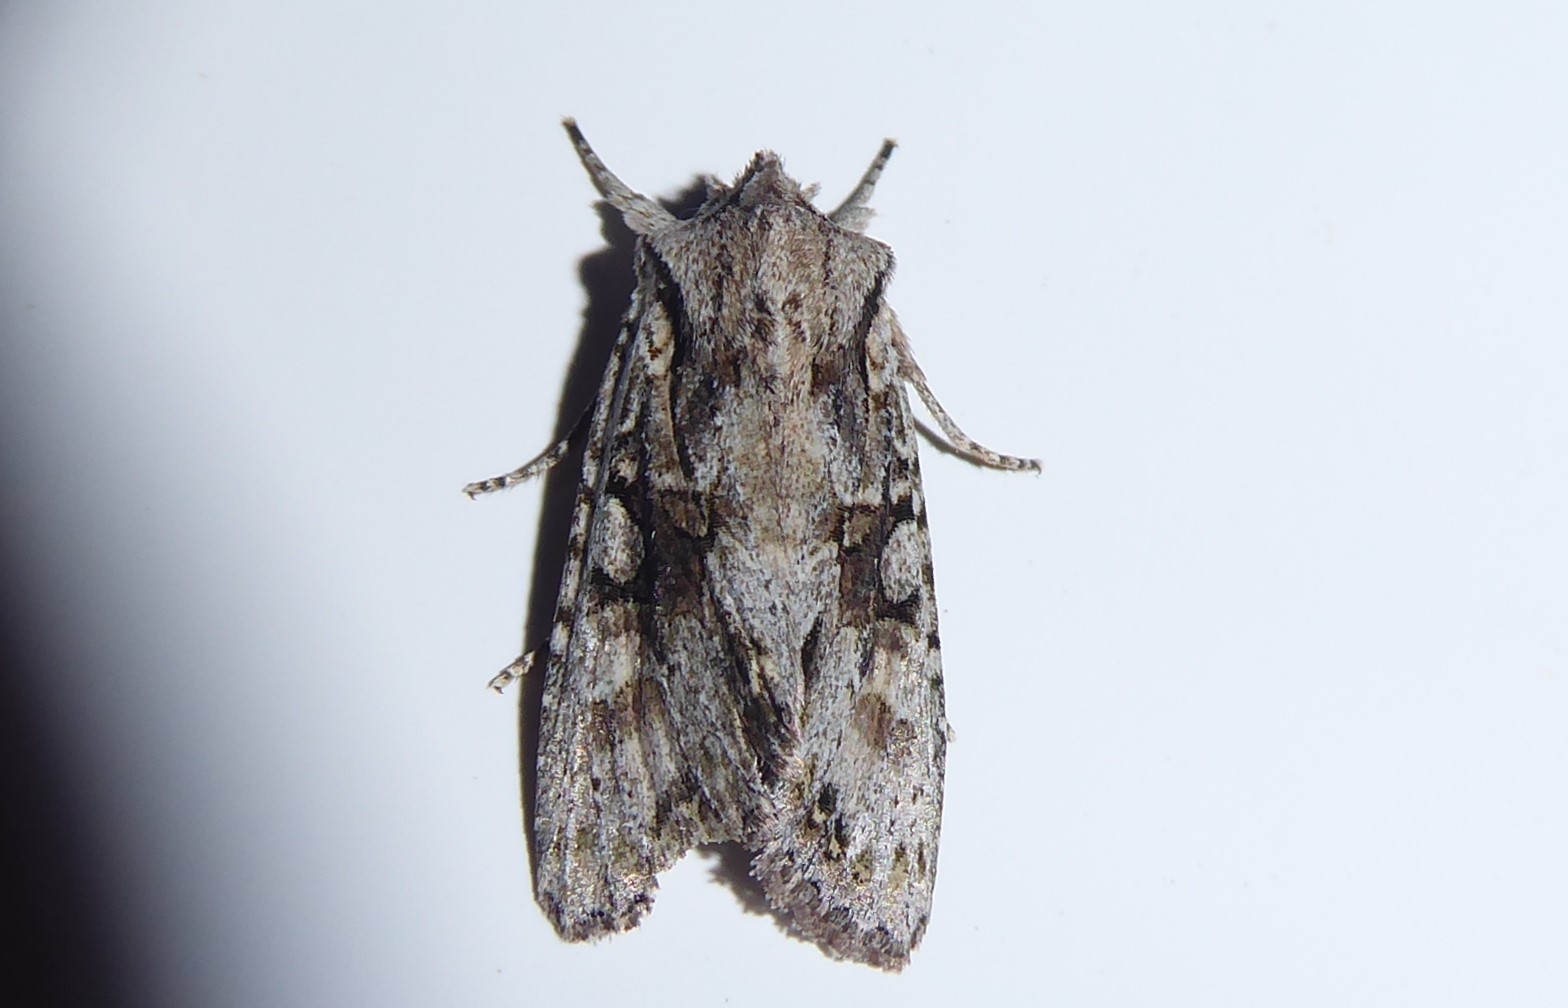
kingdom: Animalia
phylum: Arthropoda
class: Insecta
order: Lepidoptera
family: Noctuidae
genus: Ichneutica
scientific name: Ichneutica mutans
